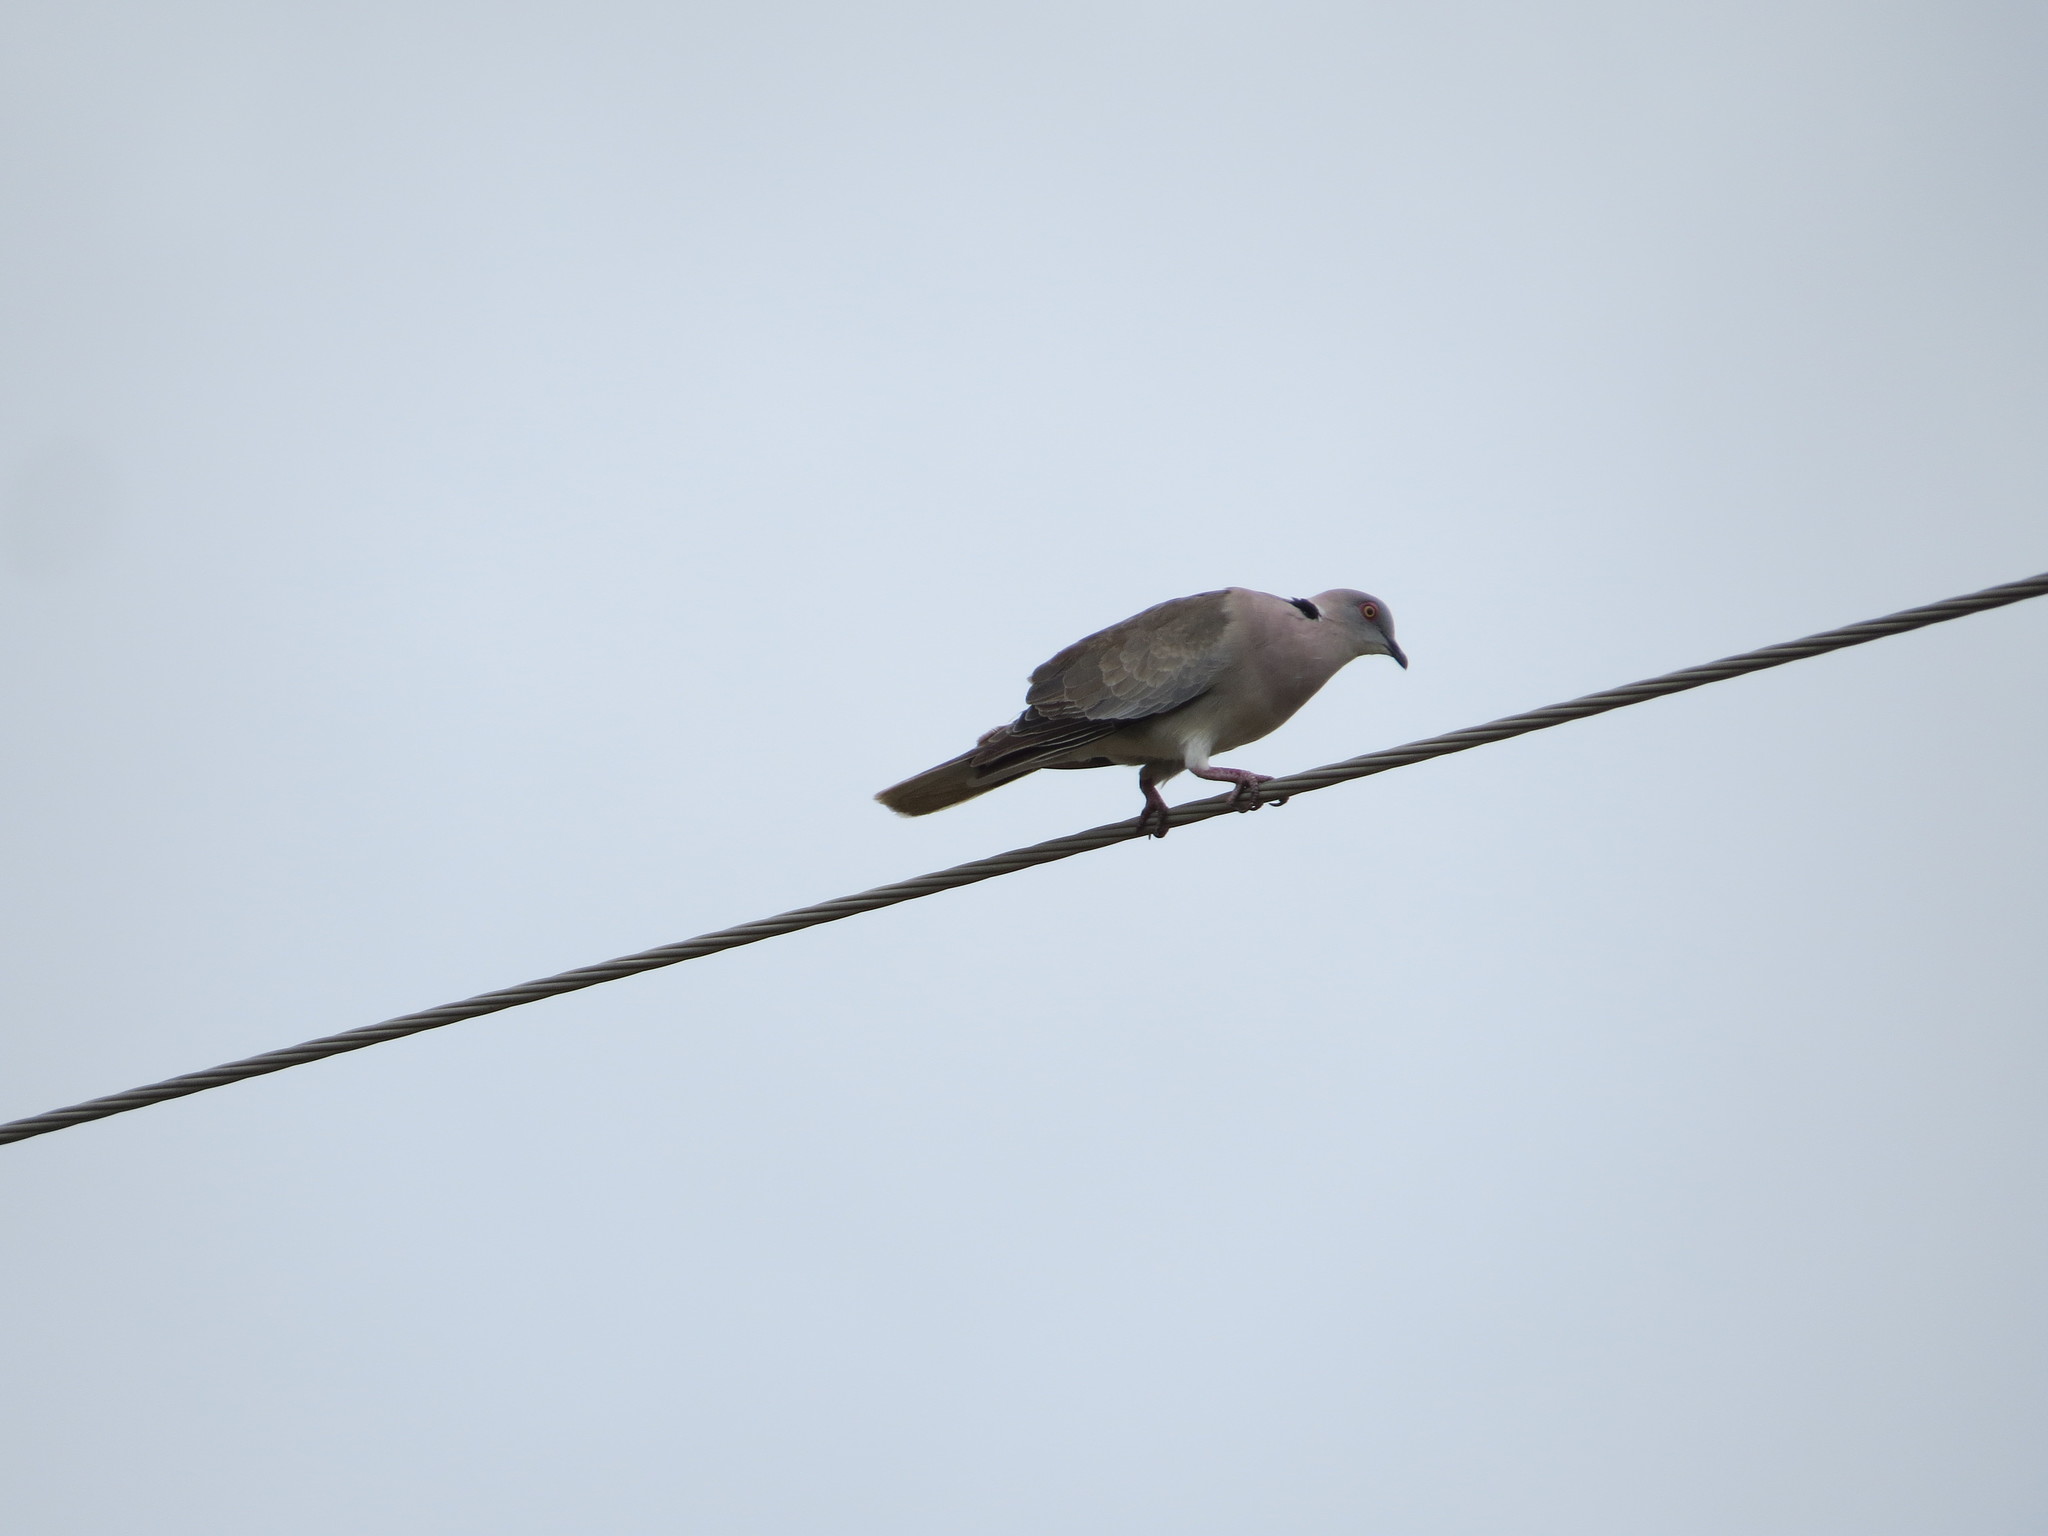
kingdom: Animalia
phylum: Chordata
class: Aves
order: Columbiformes
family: Columbidae
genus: Streptopelia
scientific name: Streptopelia decipiens
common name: Mourning collared dove
